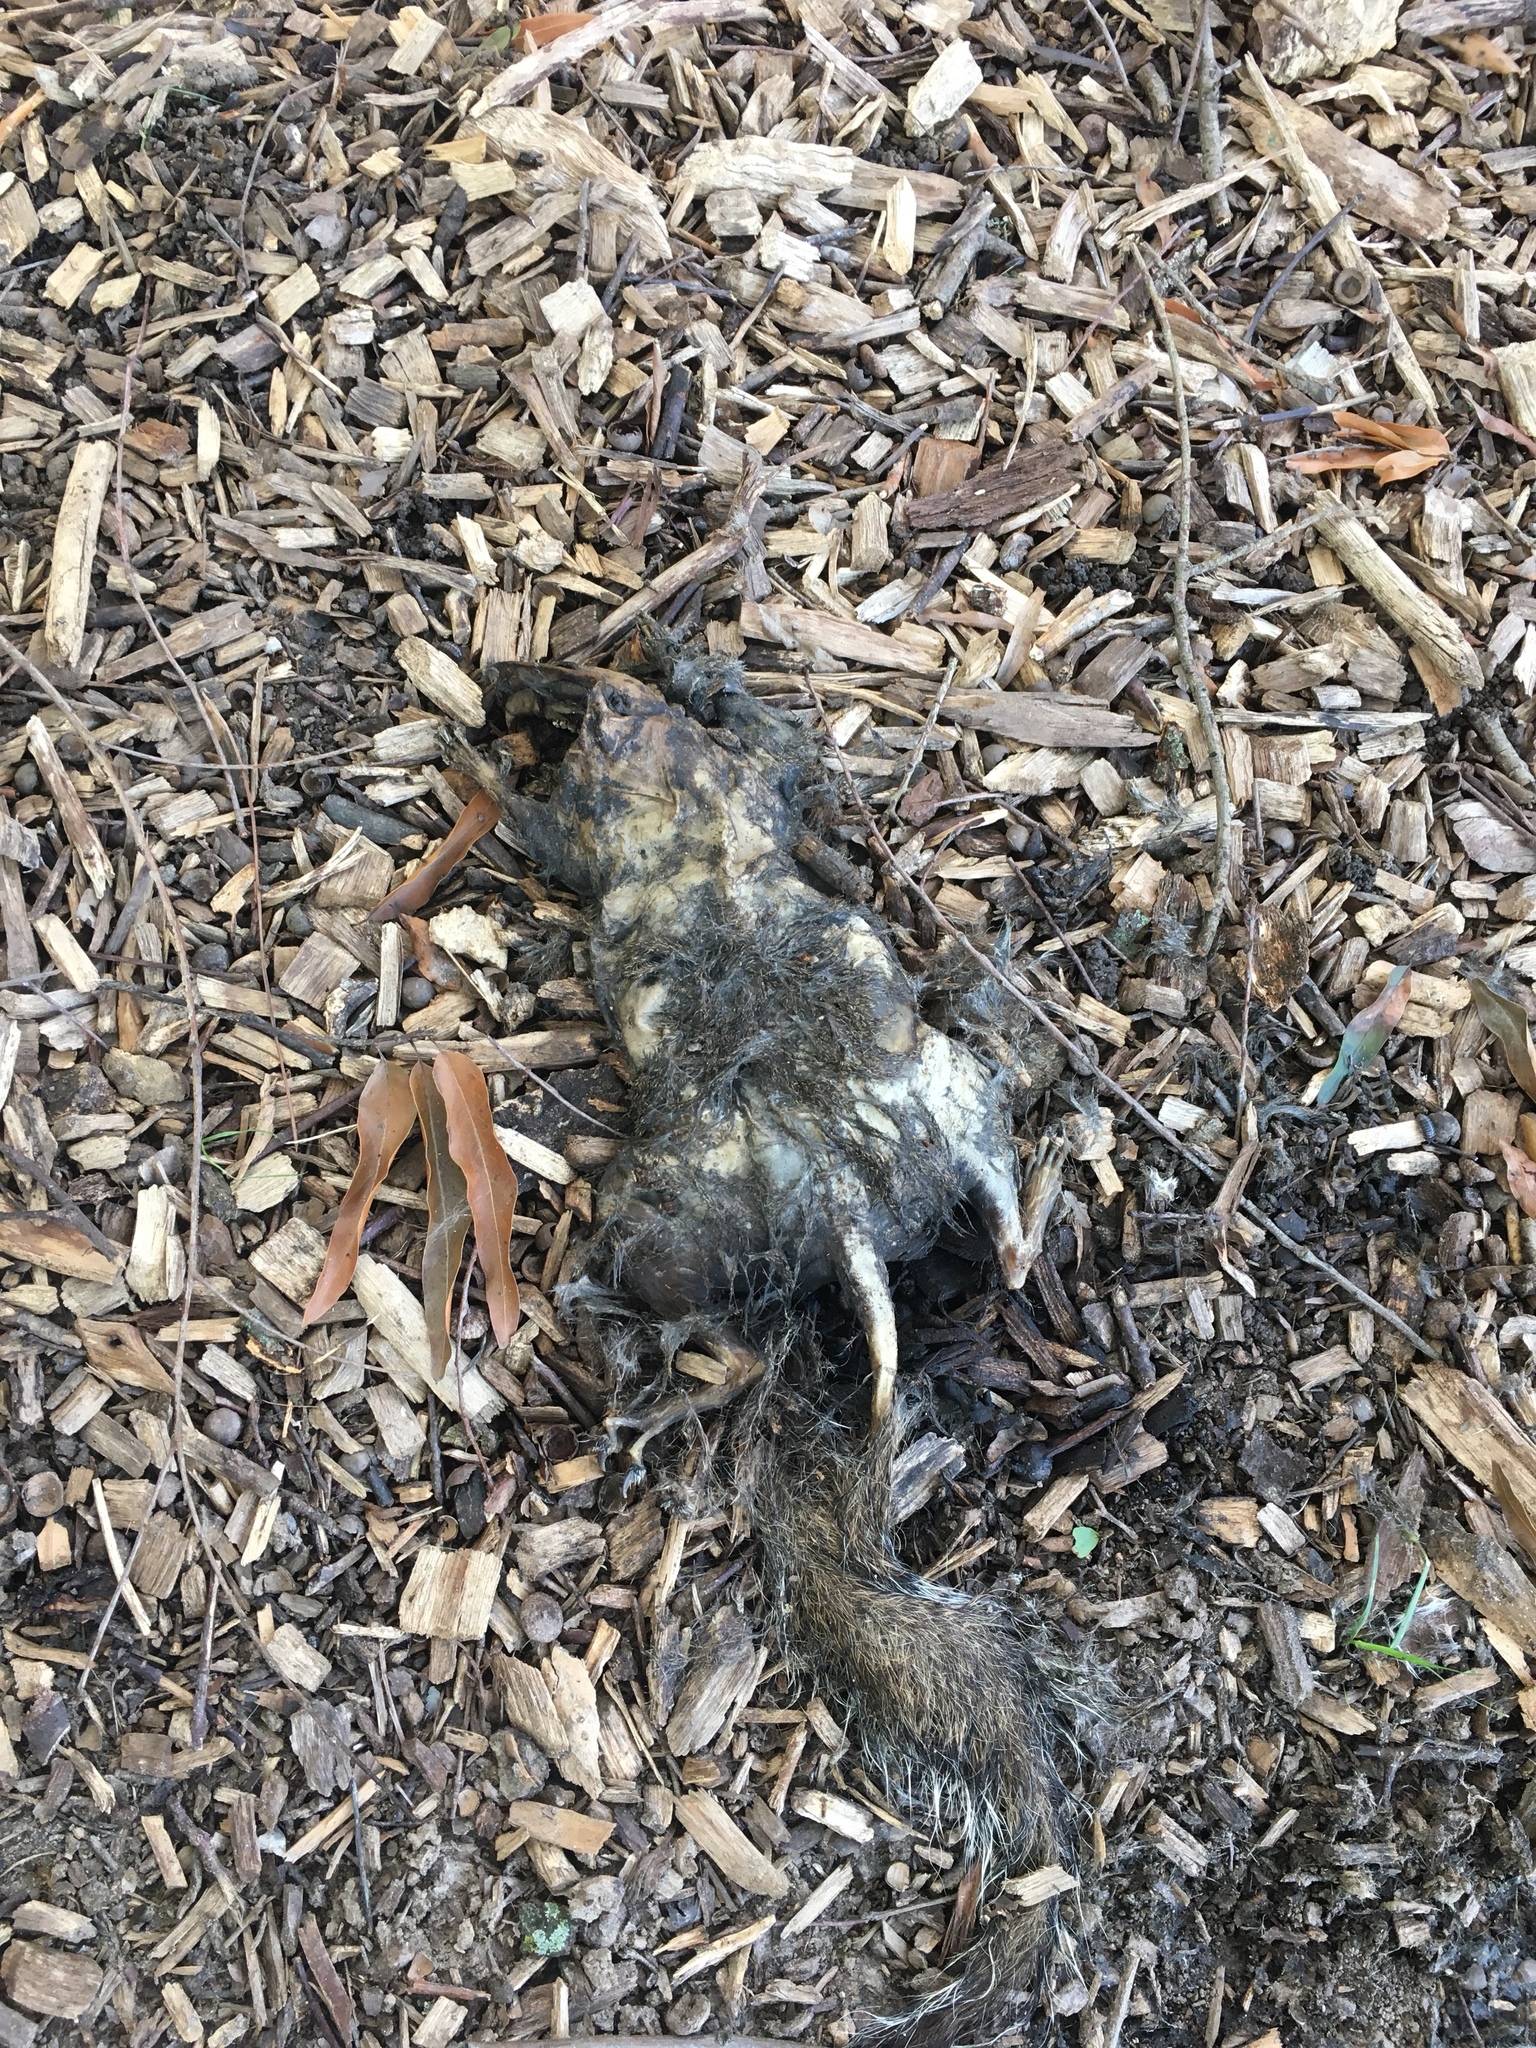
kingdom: Animalia
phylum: Chordata
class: Mammalia
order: Rodentia
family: Sciuridae
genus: Sciurus
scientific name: Sciurus carolinensis
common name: Eastern gray squirrel
